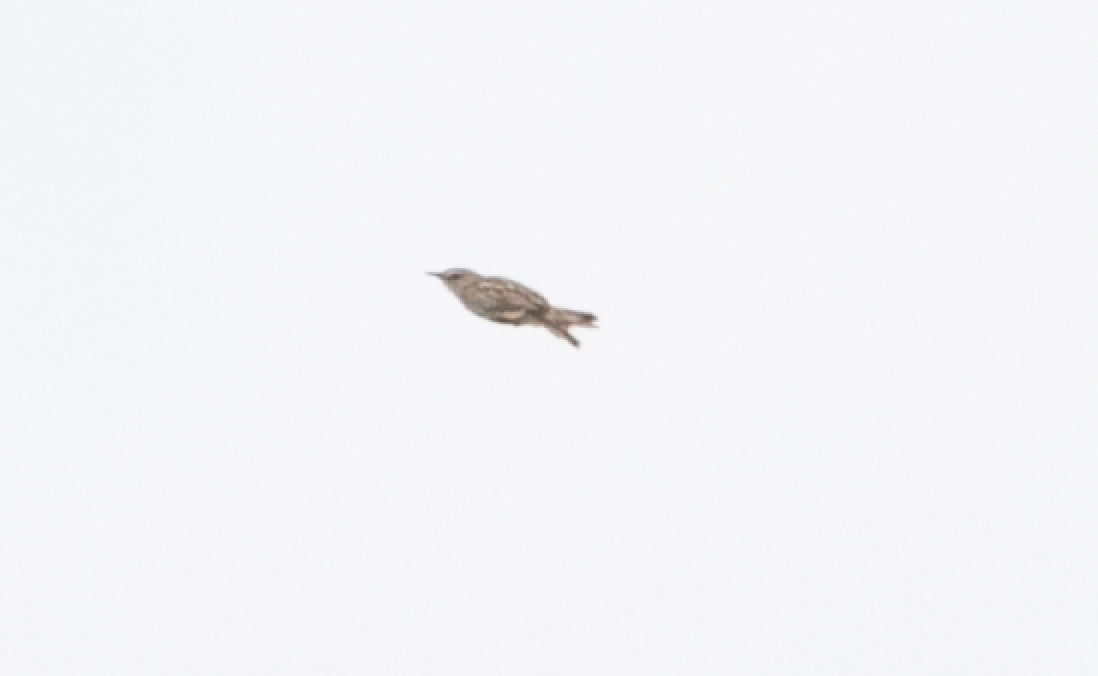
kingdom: Animalia
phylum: Chordata
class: Aves
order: Passeriformes
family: Cisticolidae
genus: Cisticola
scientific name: Cisticola juncidis
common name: Zitting cisticola
